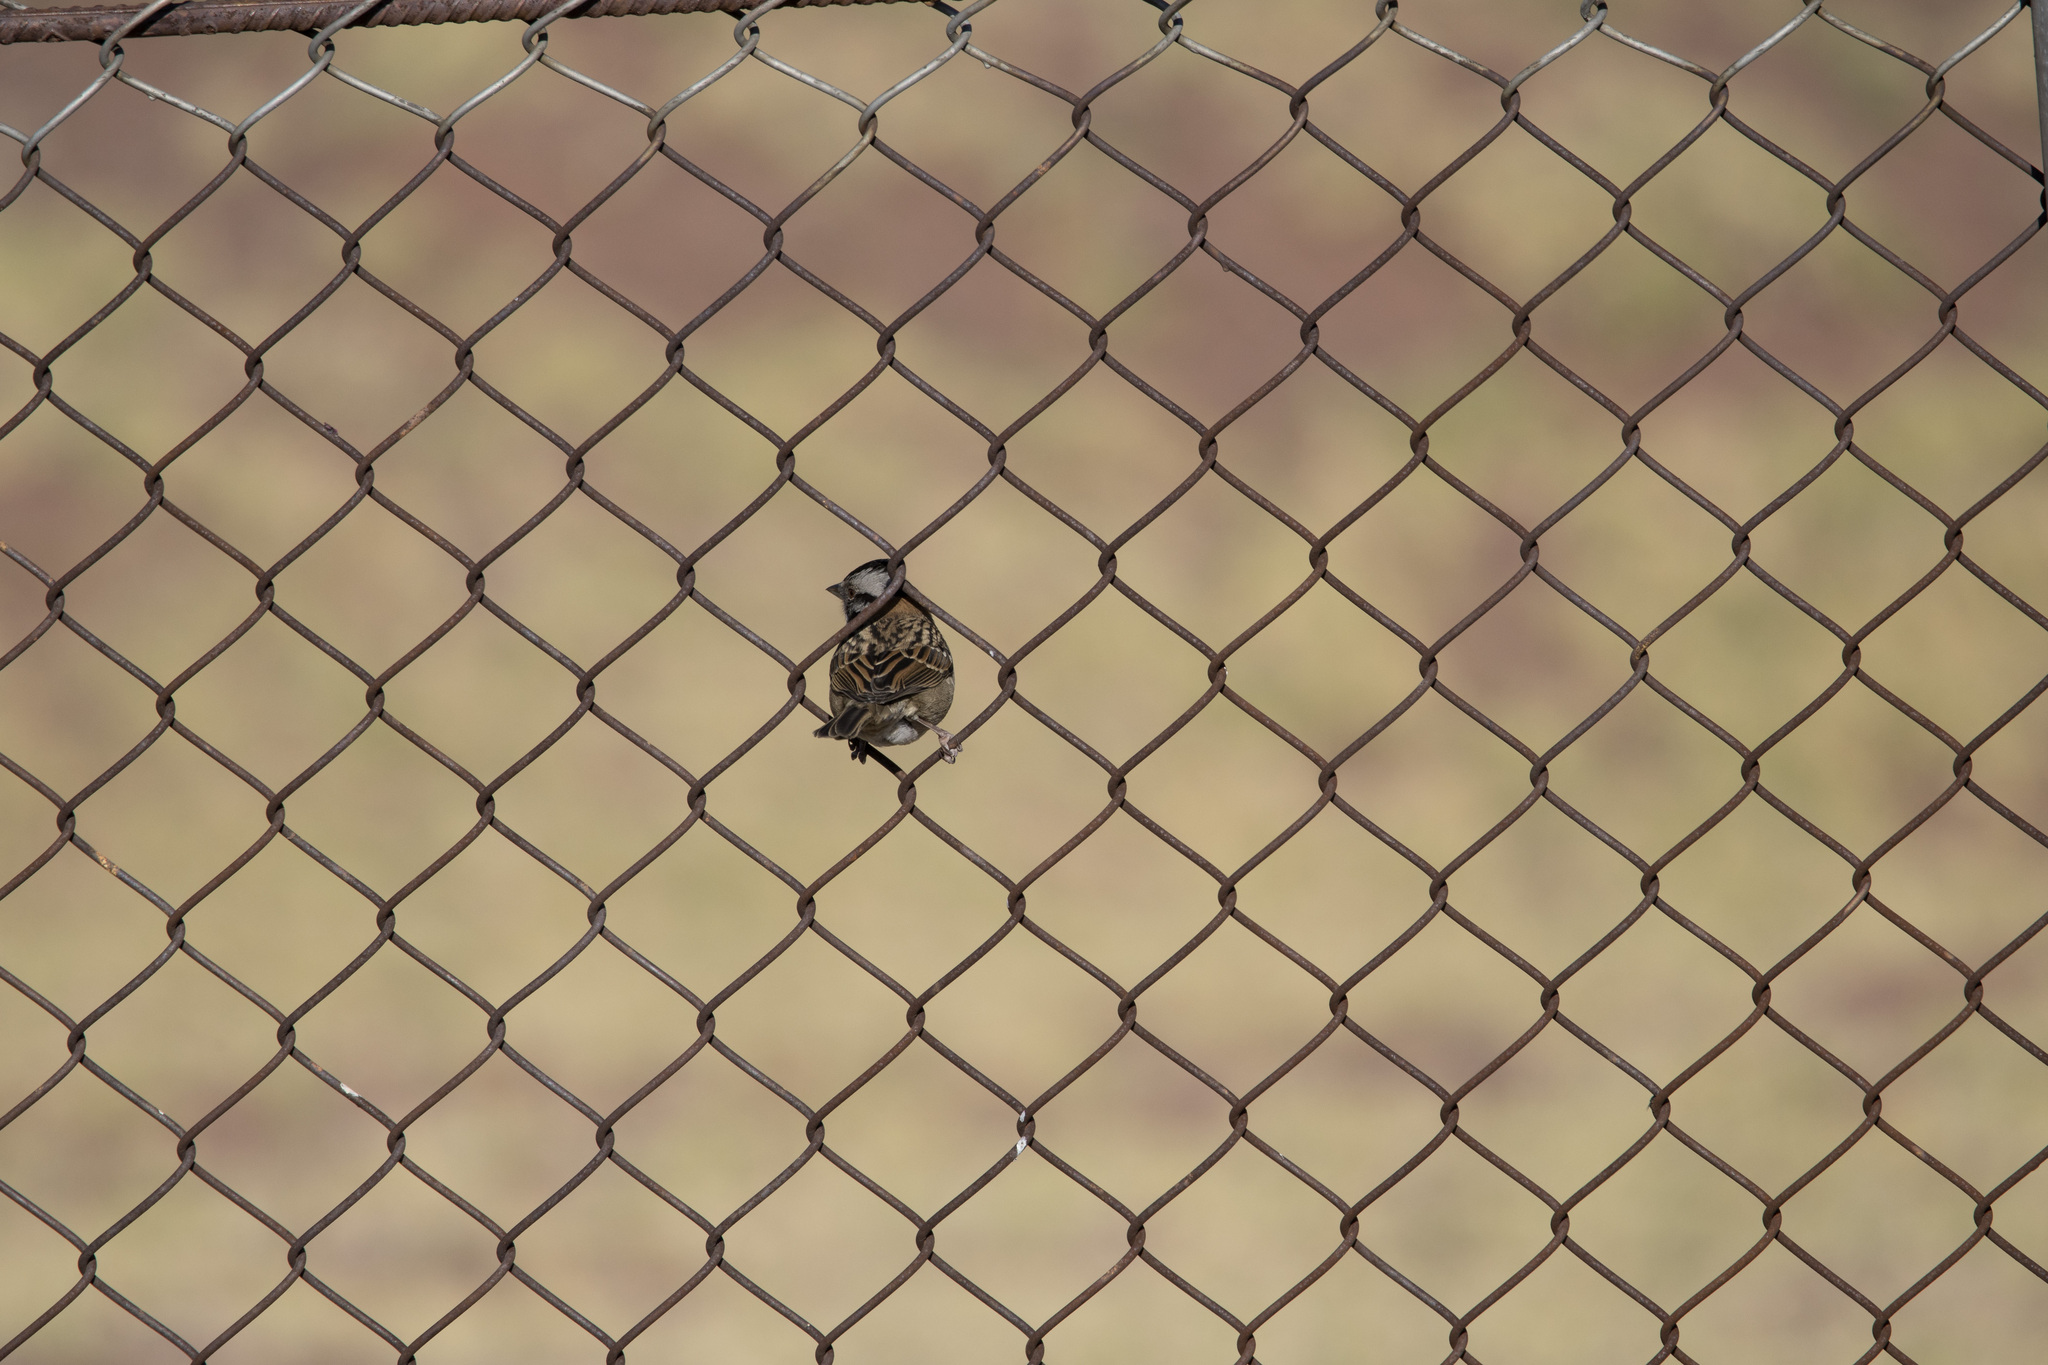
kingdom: Animalia
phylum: Chordata
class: Aves
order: Passeriformes
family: Passerellidae
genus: Zonotrichia
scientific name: Zonotrichia capensis
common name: Rufous-collared sparrow
